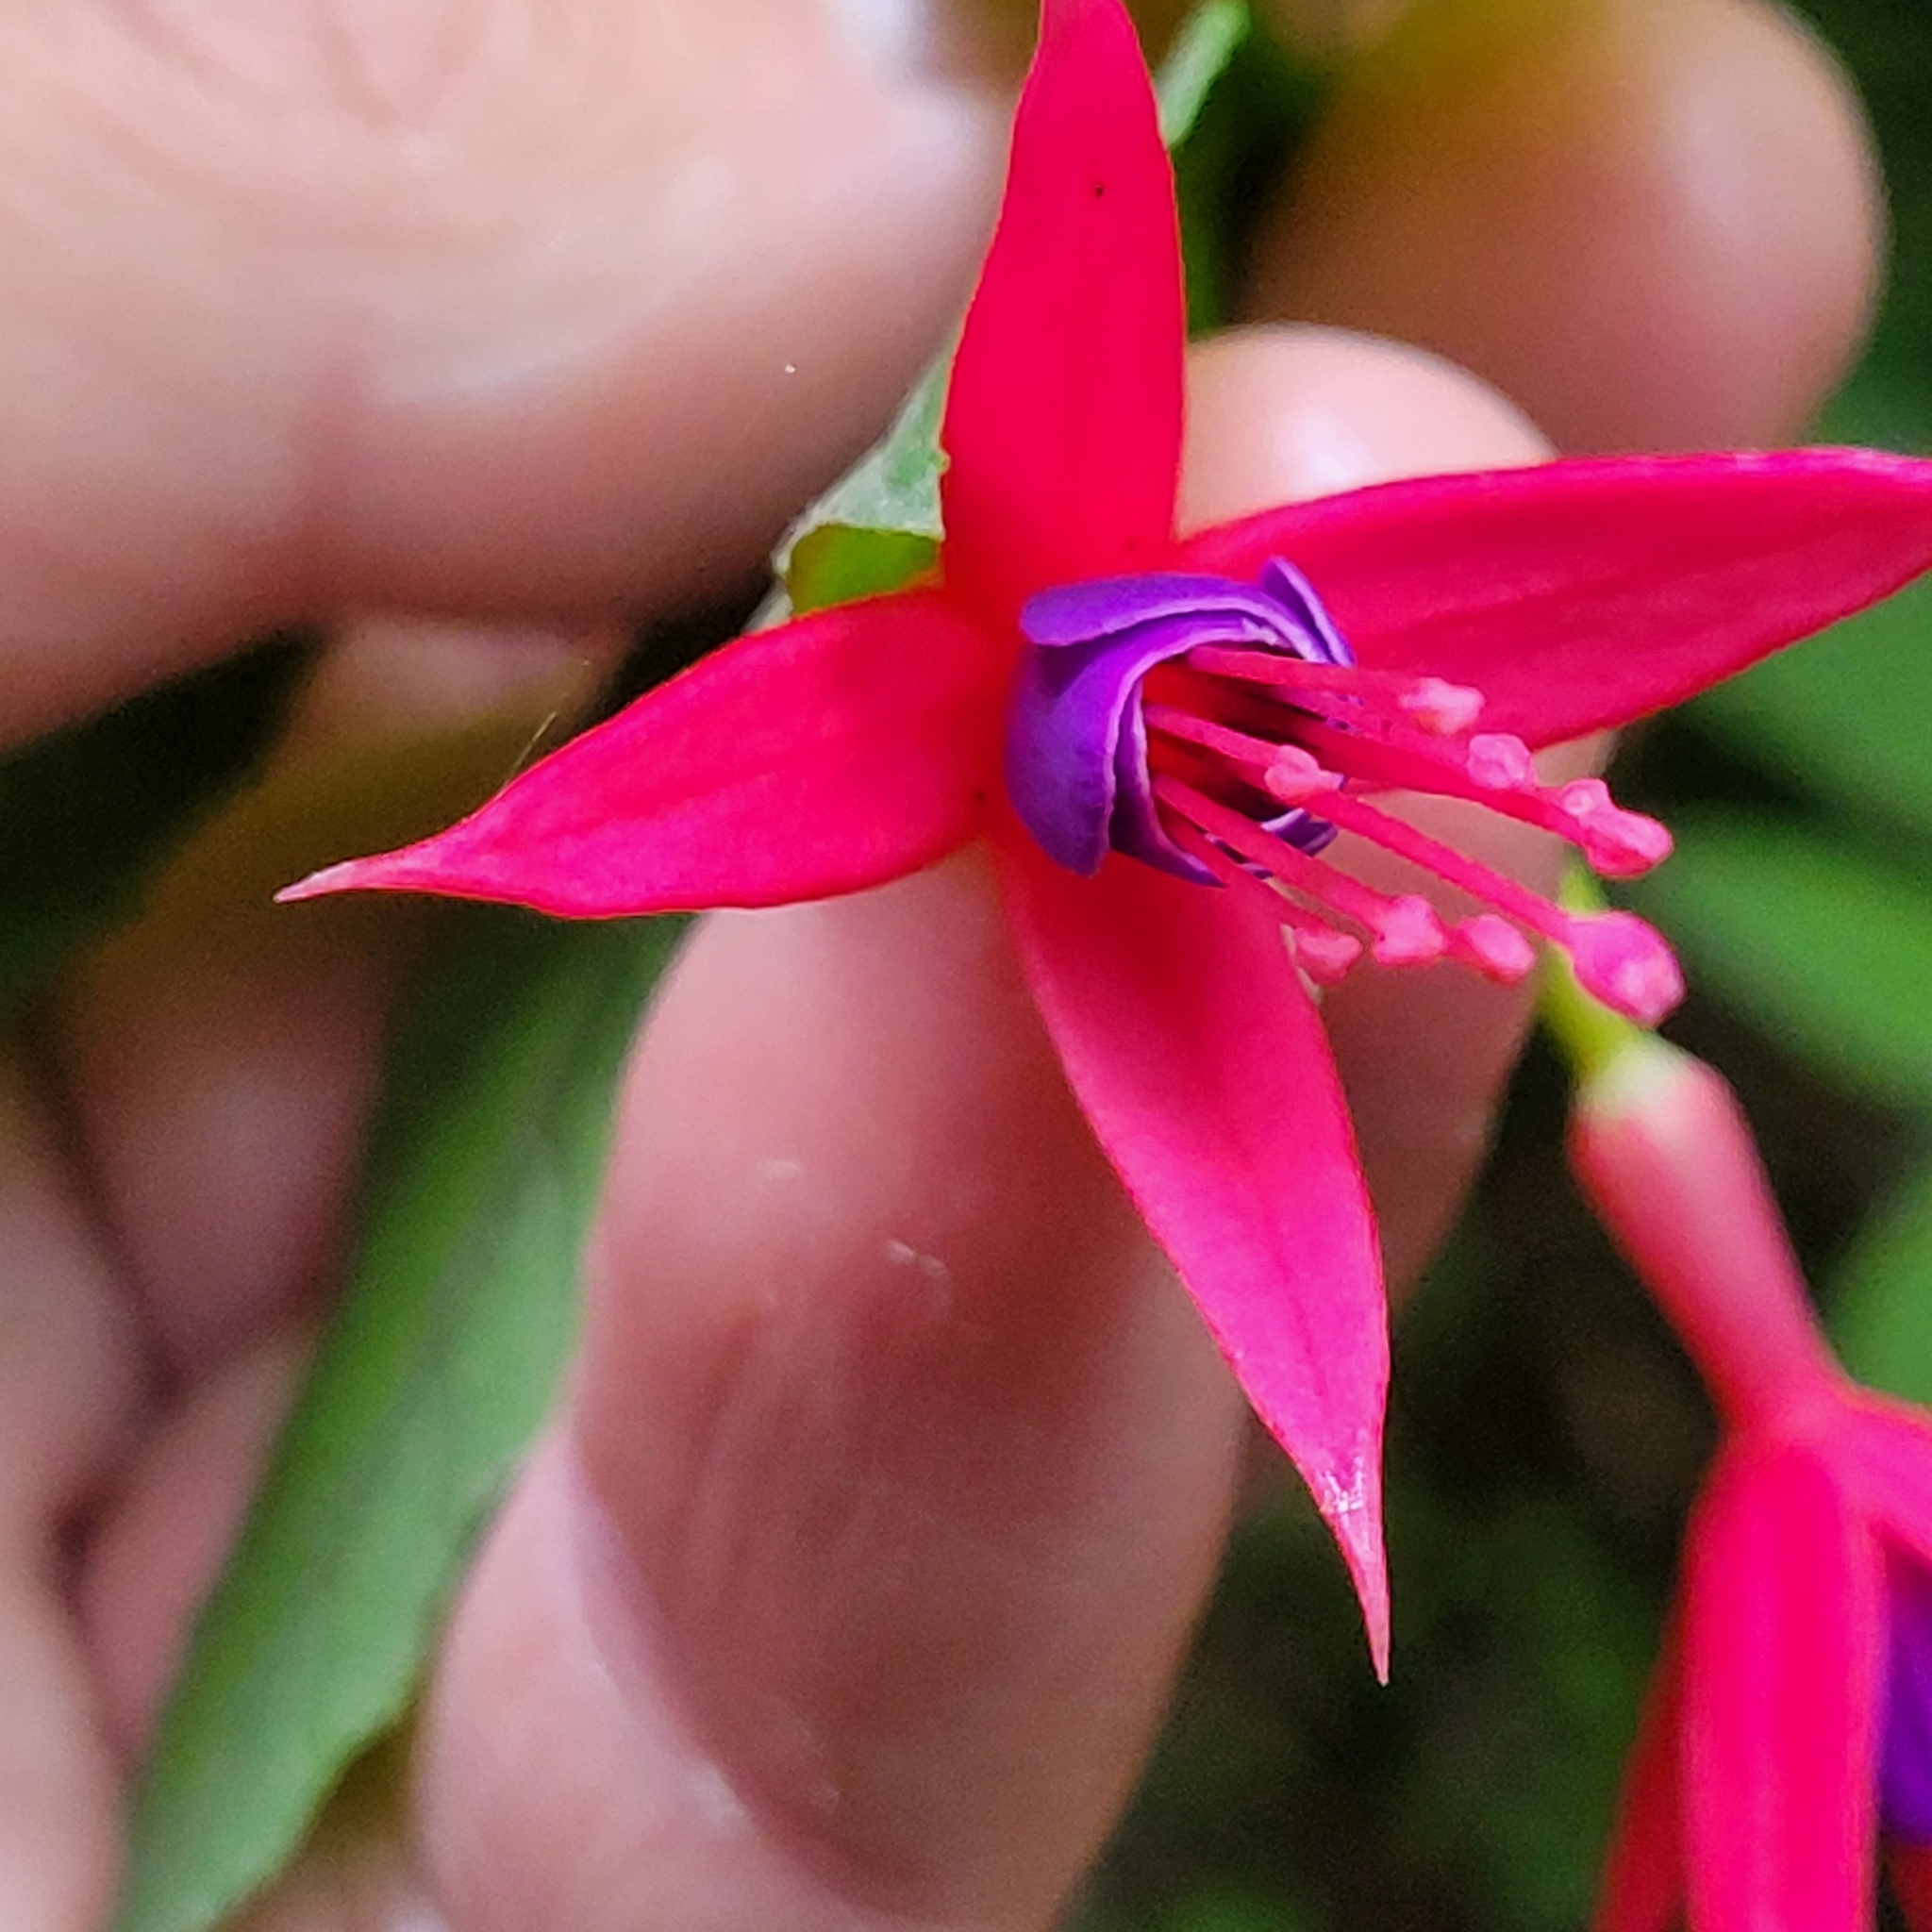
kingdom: Plantae
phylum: Tracheophyta
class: Magnoliopsida
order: Myrtales
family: Onagraceae
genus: Fuchsia
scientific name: Fuchsia magellanica
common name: Hardy fuchsia
